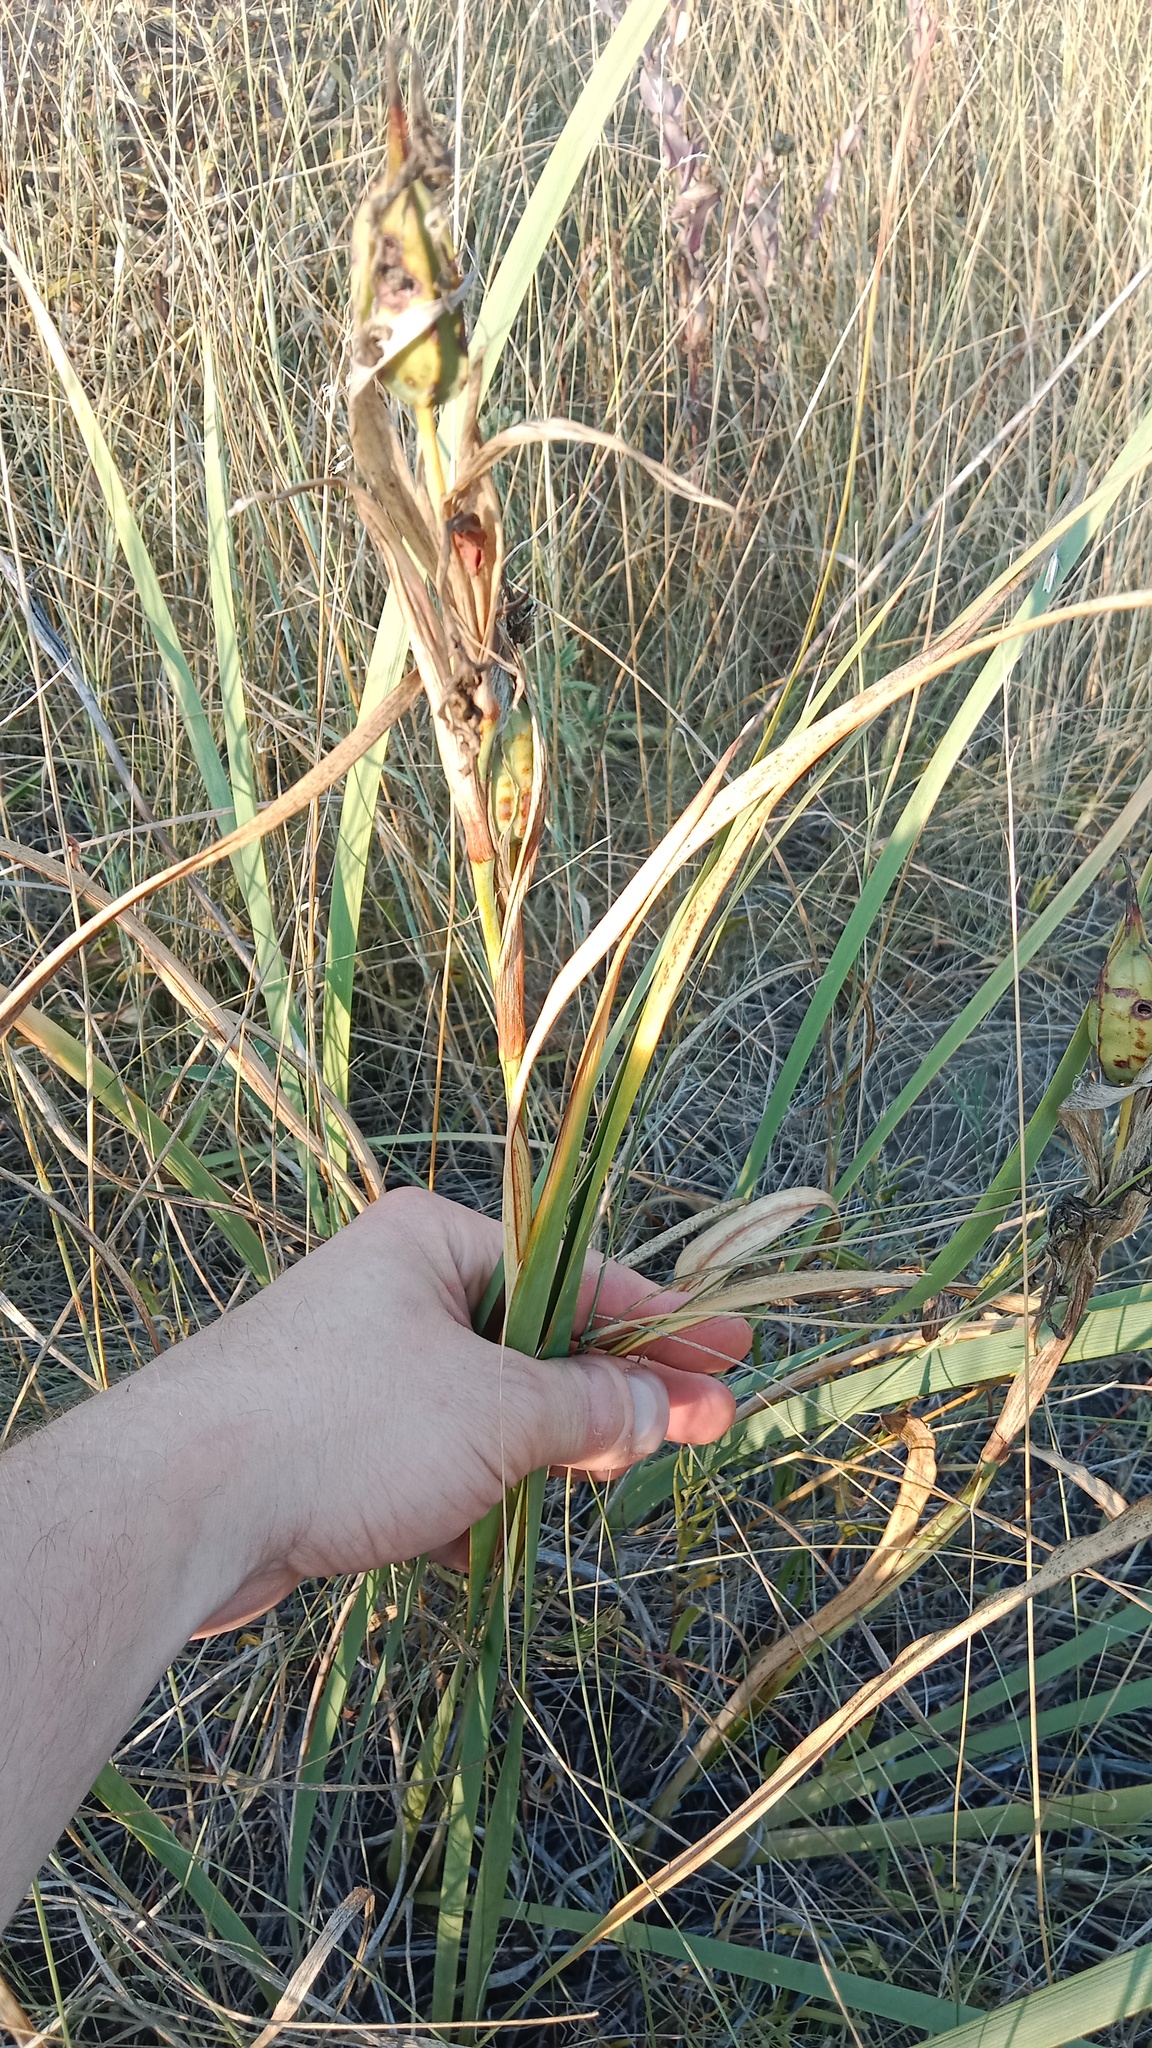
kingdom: Plantae
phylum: Tracheophyta
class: Liliopsida
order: Asparagales
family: Iridaceae
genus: Iris
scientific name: Iris halophila
